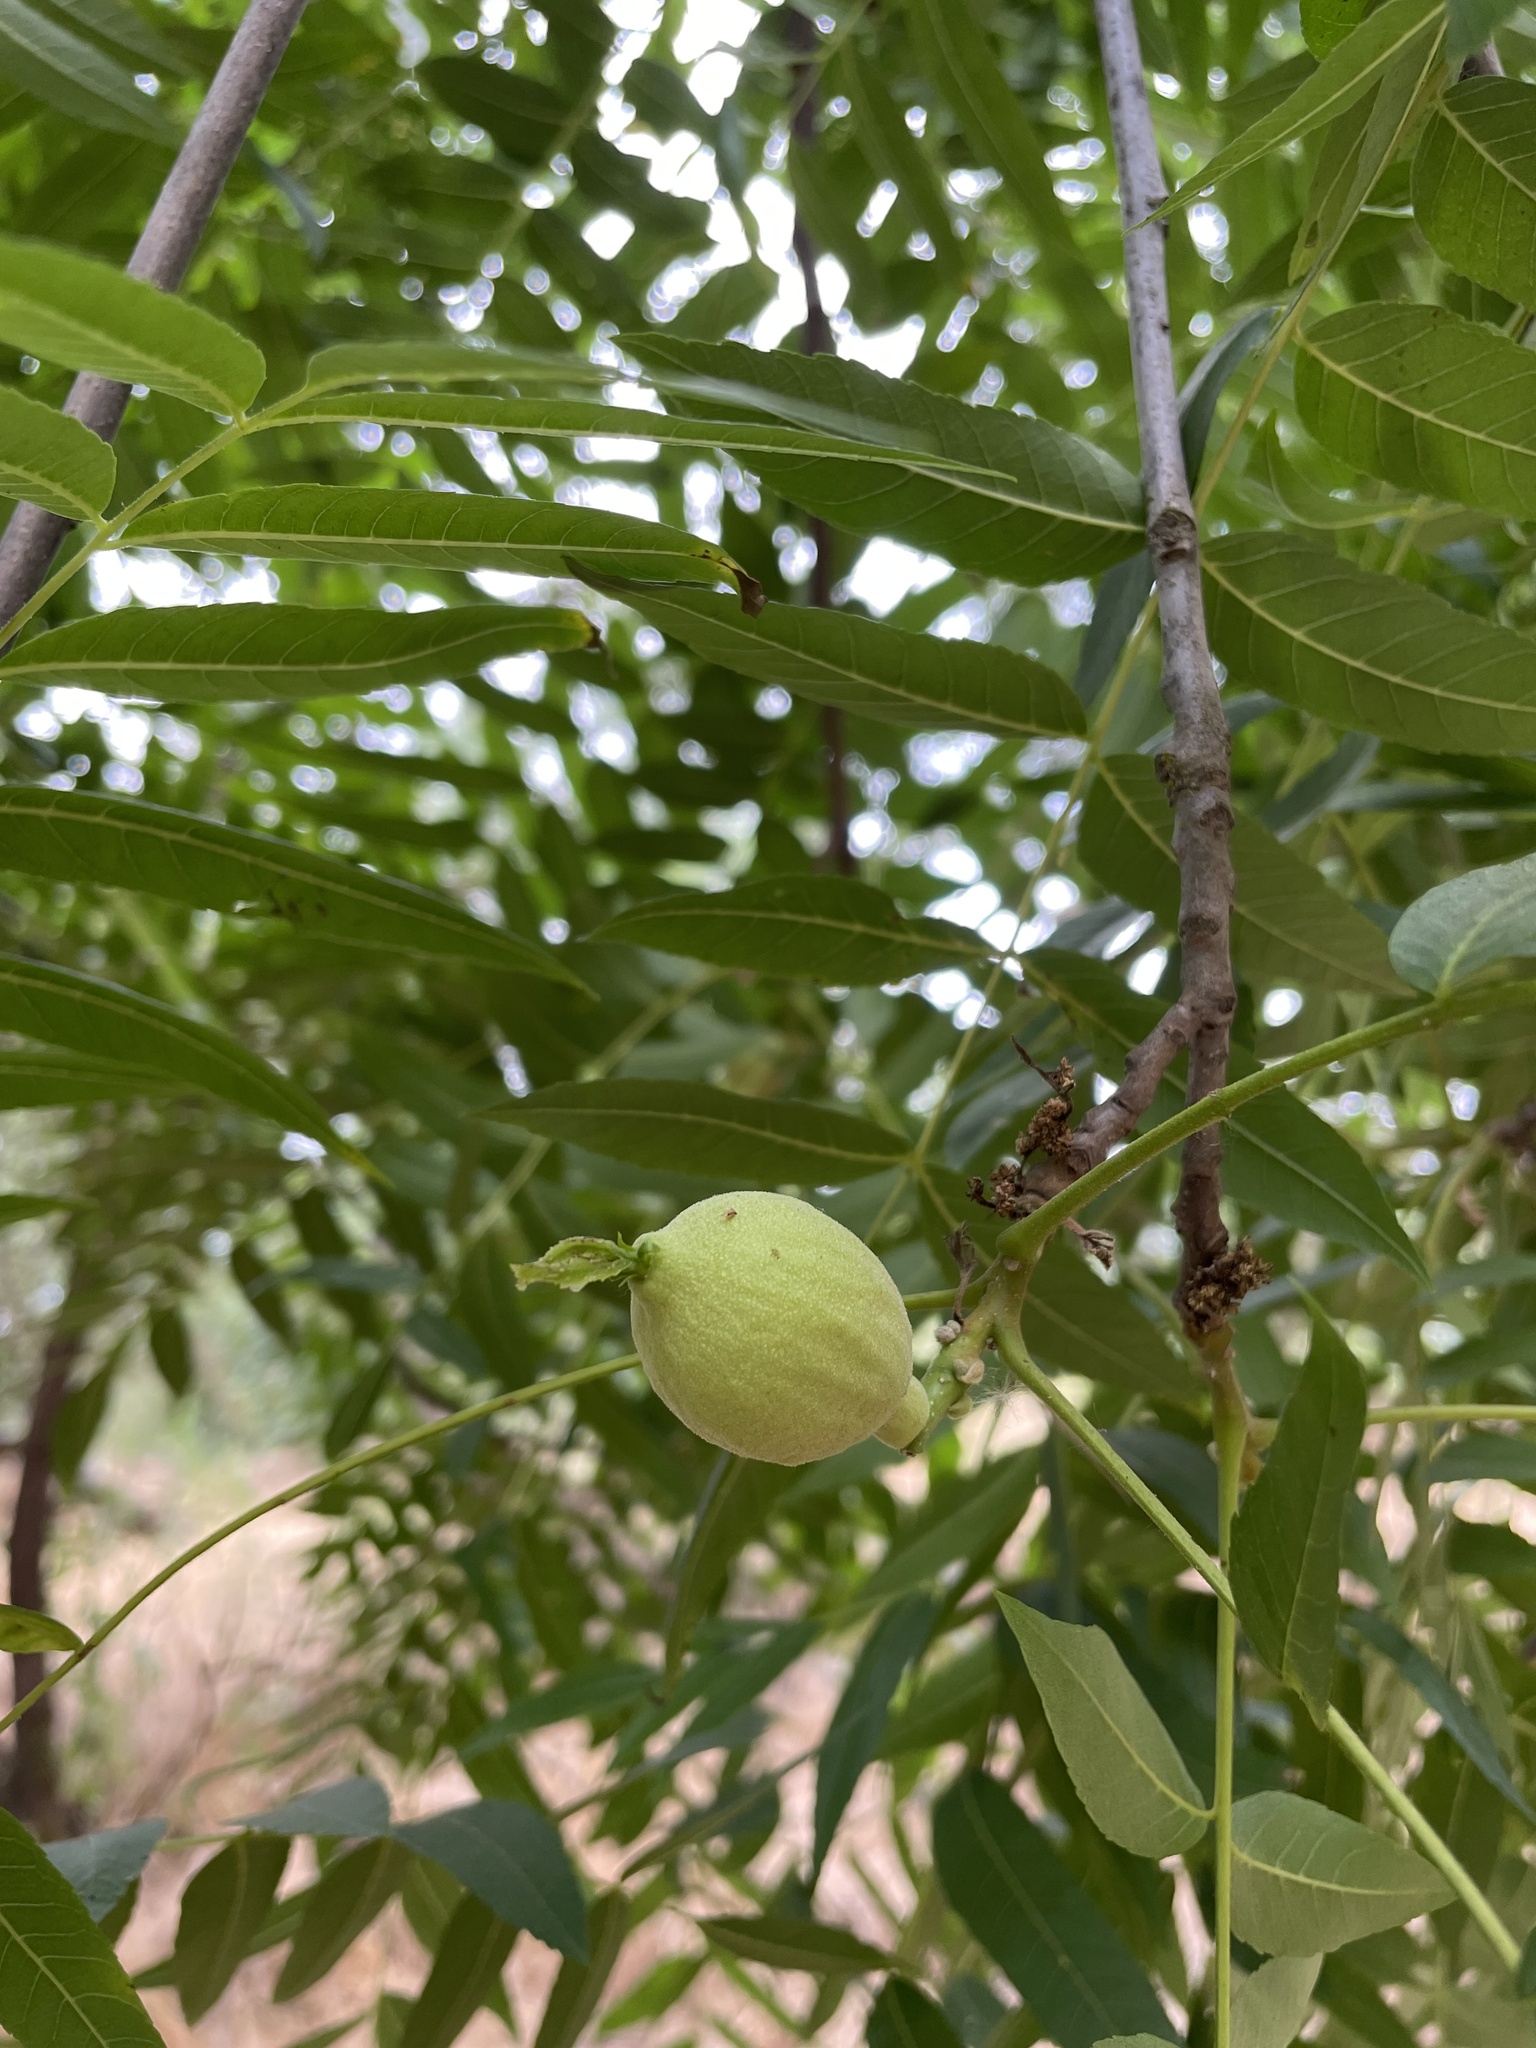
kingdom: Plantae
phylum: Tracheophyta
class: Magnoliopsida
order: Fagales
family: Juglandaceae
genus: Juglans
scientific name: Juglans hindsii
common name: Northern california black walnut
